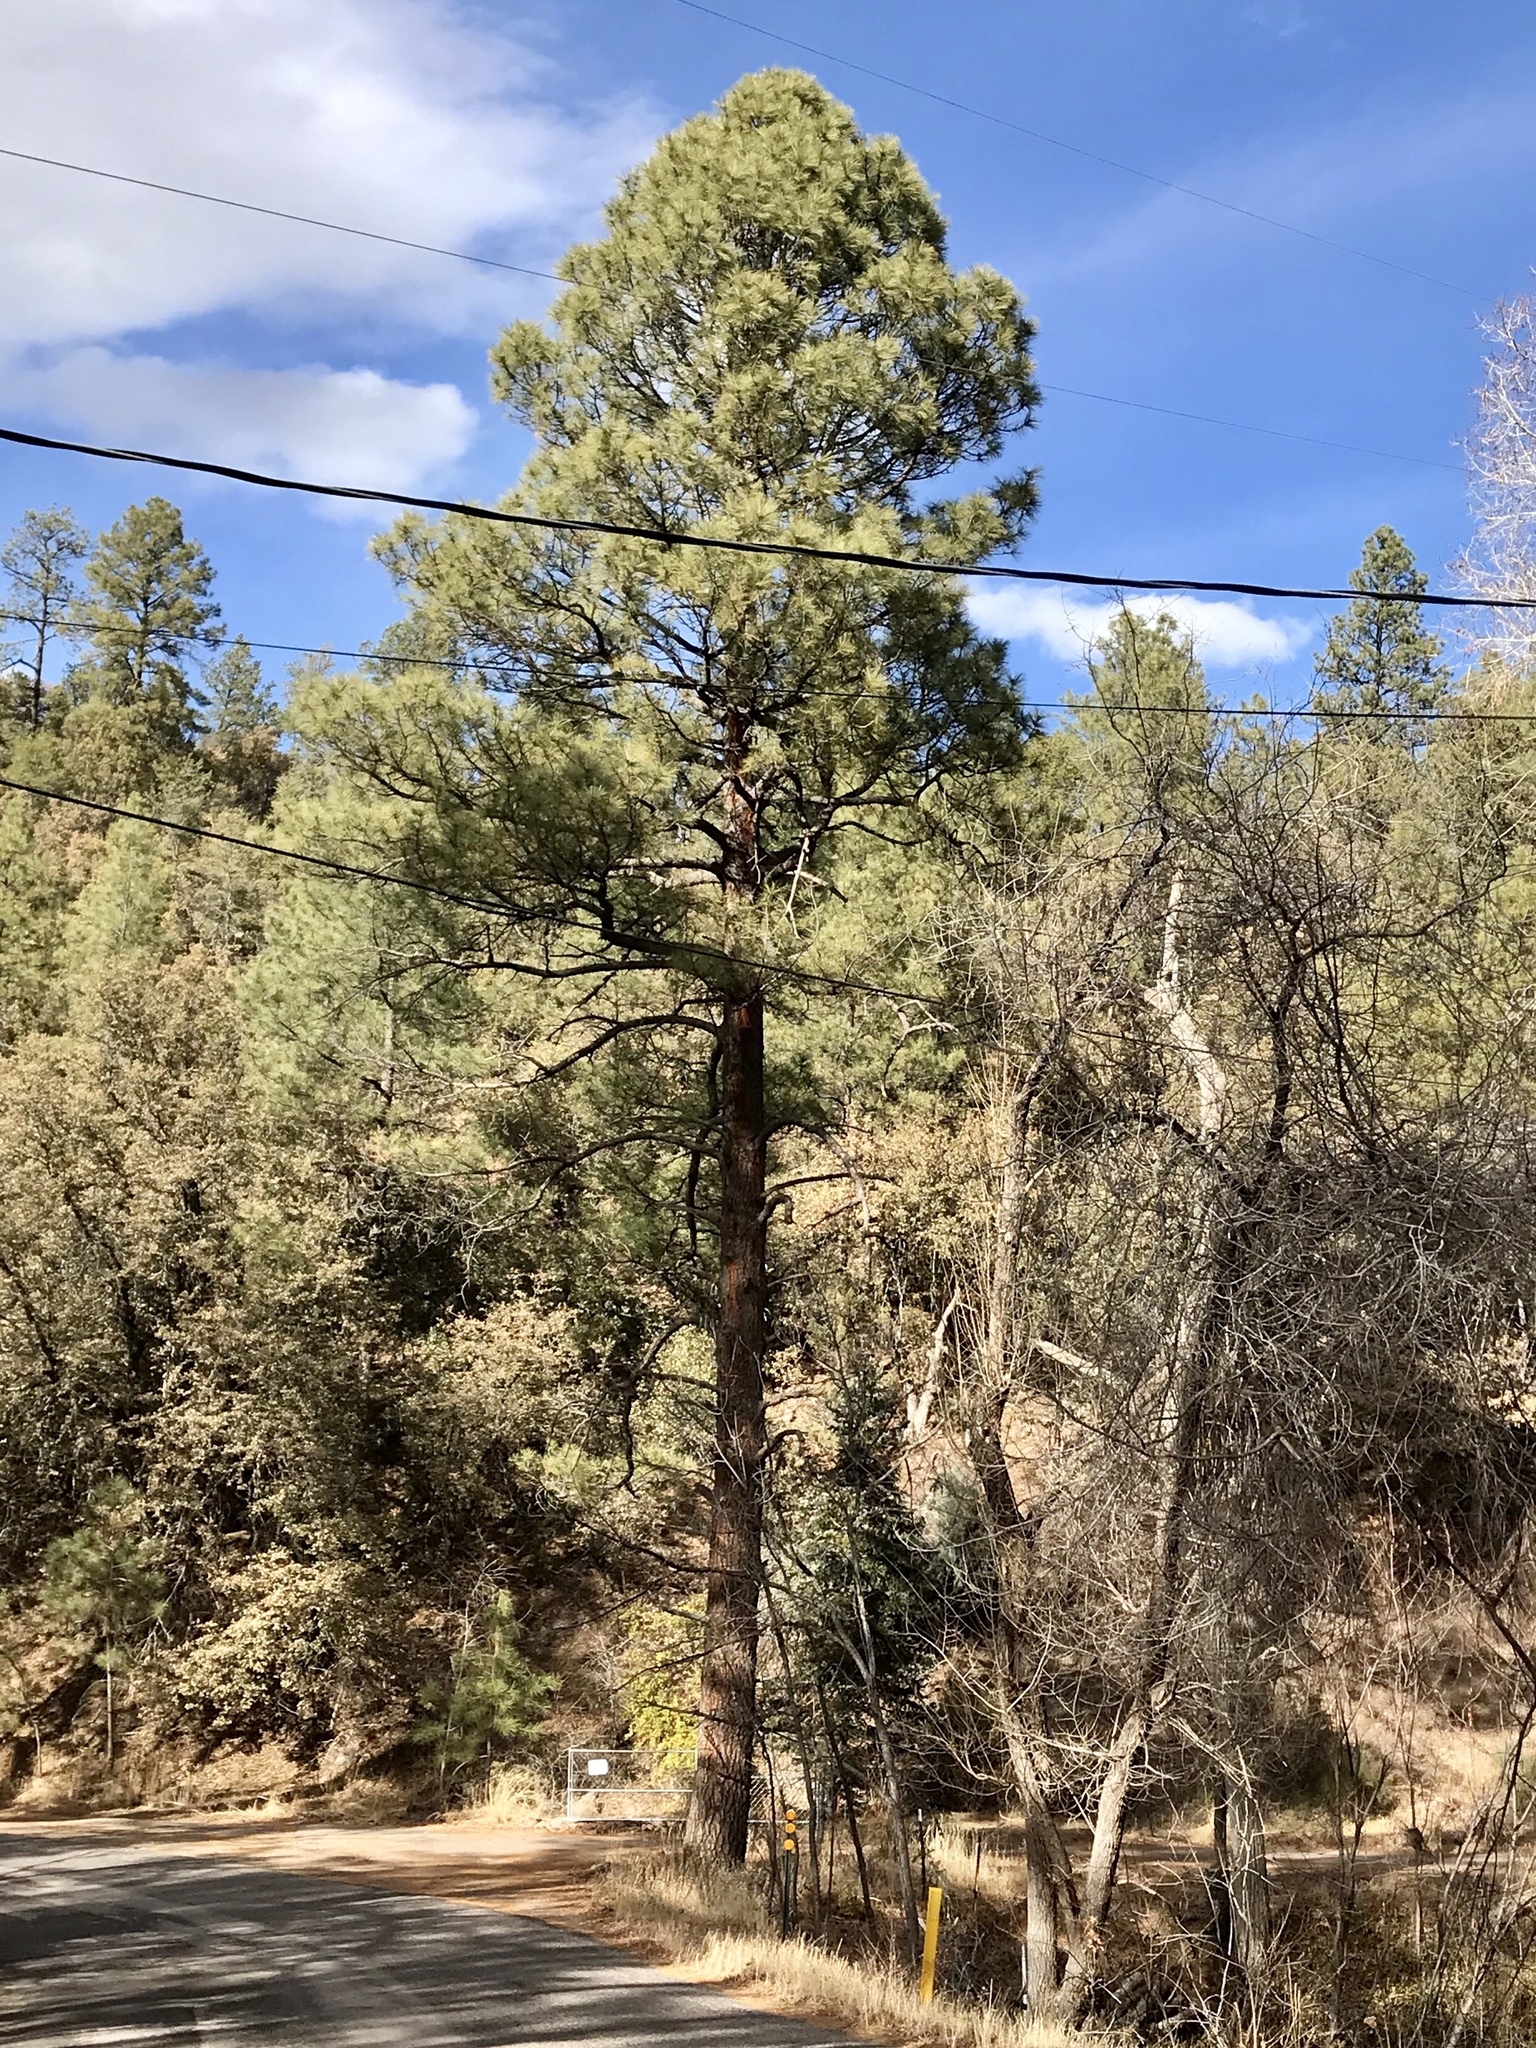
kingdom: Plantae
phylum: Tracheophyta
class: Pinopsida
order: Pinales
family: Pinaceae
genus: Pinus
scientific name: Pinus ponderosa
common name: Western yellow-pine
